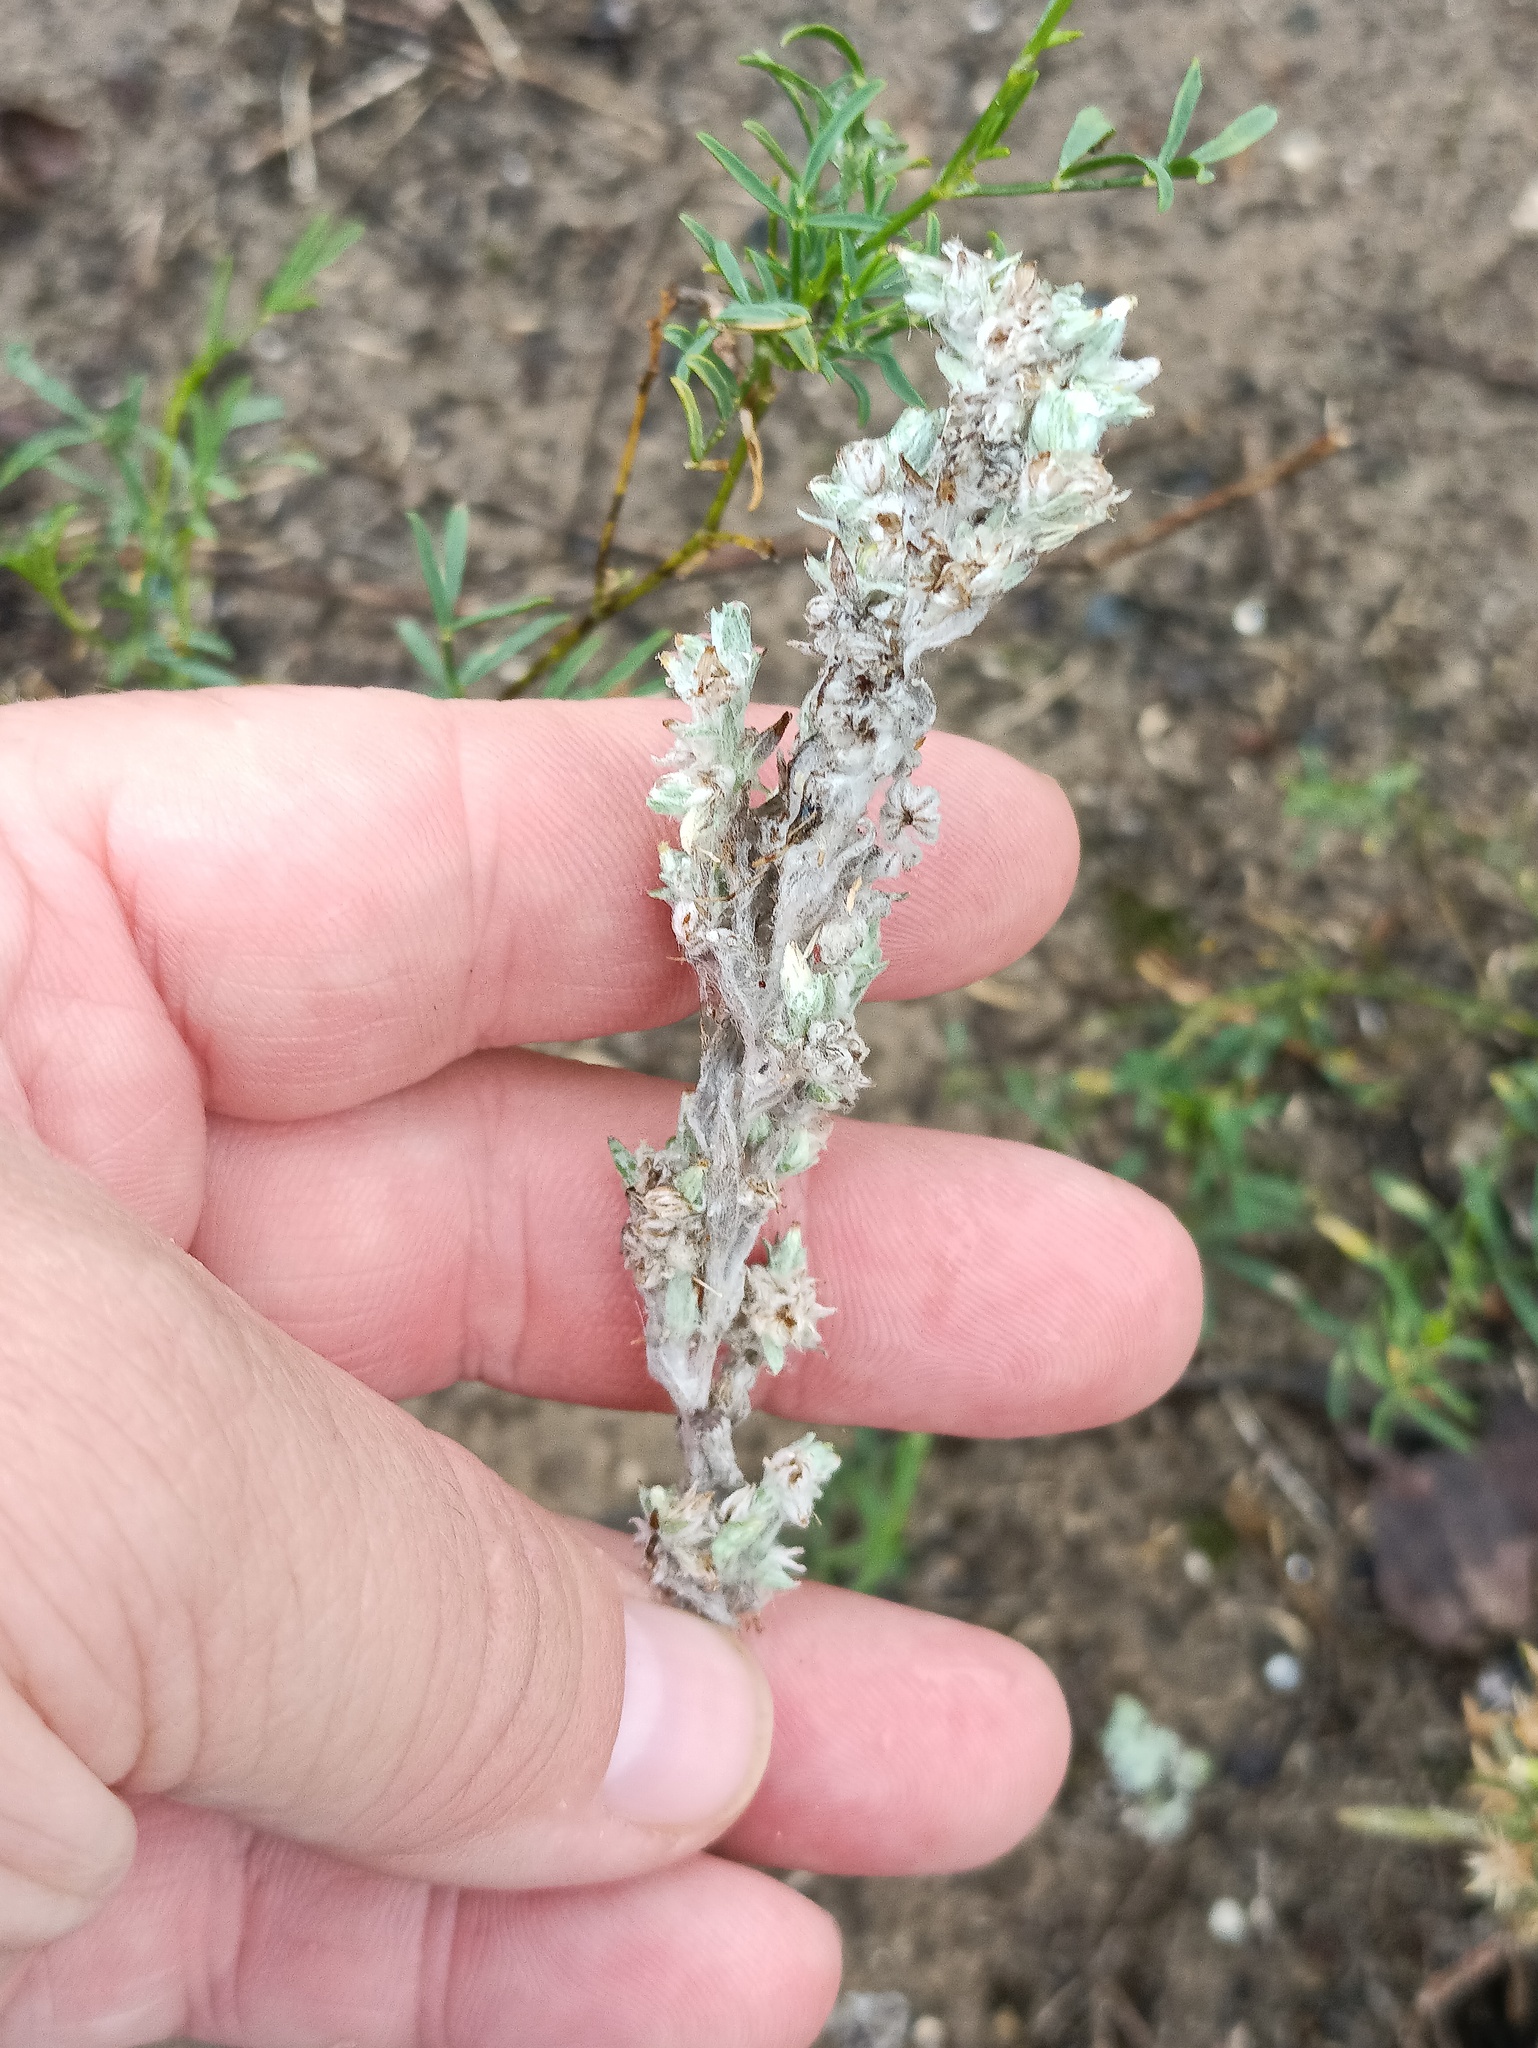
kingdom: Plantae
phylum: Tracheophyta
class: Magnoliopsida
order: Asterales
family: Asteraceae
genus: Filago
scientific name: Filago arvensis
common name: Field cudweed
